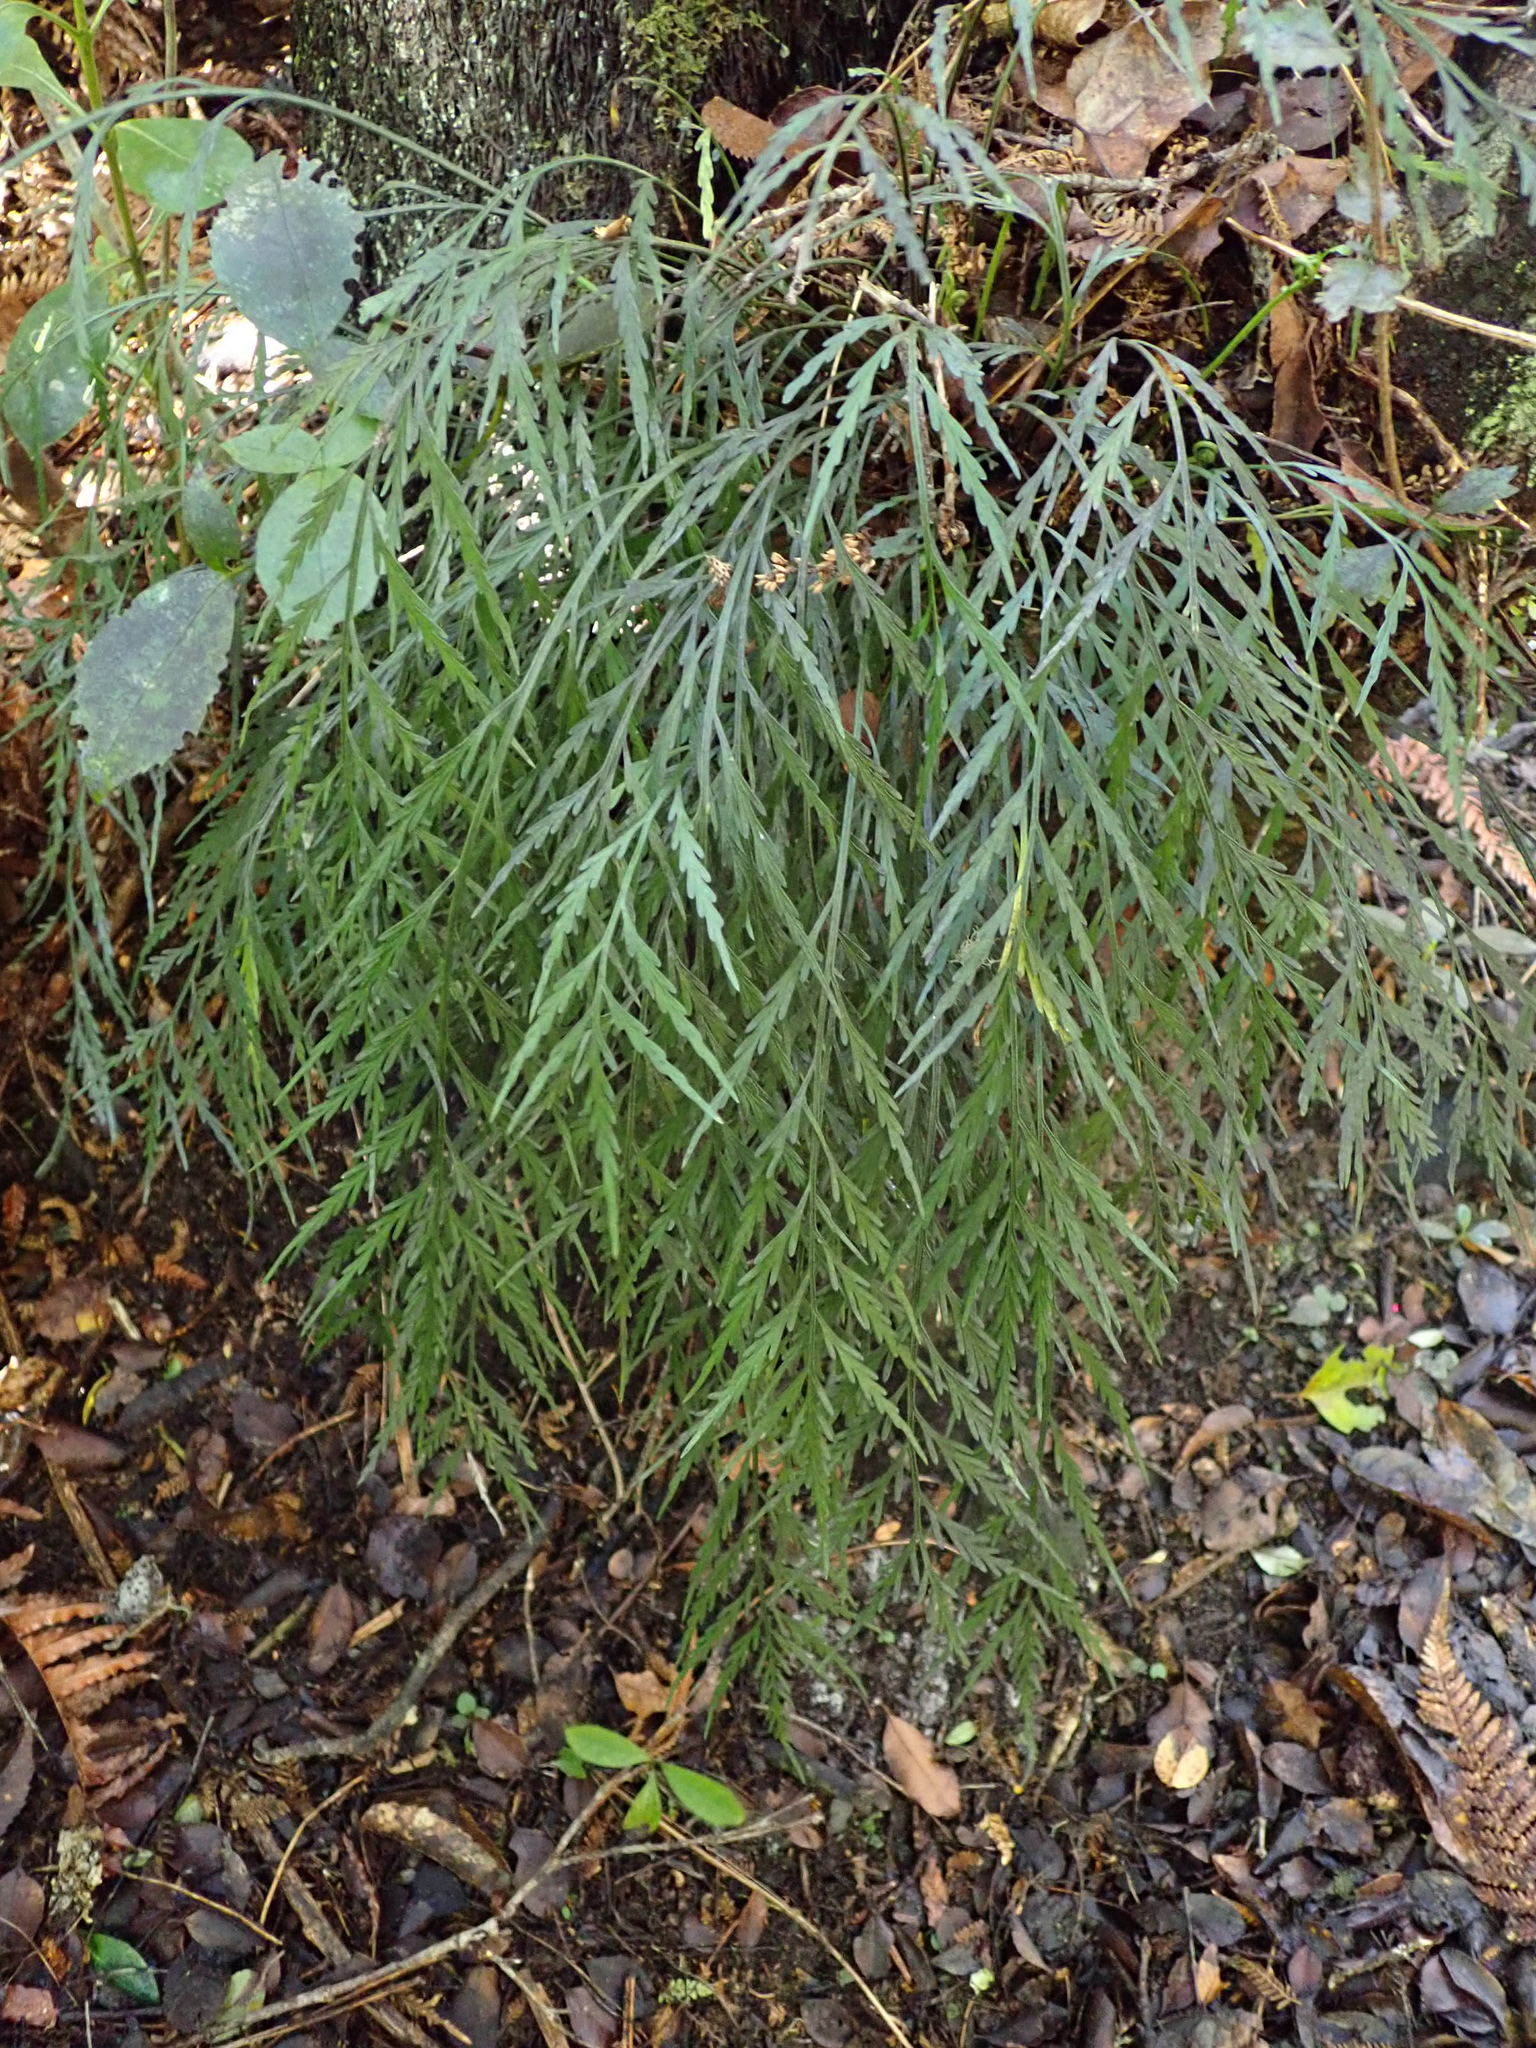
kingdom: Plantae
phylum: Tracheophyta
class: Polypodiopsida
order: Polypodiales
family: Aspleniaceae
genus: Asplenium
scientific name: Asplenium flaccidum
